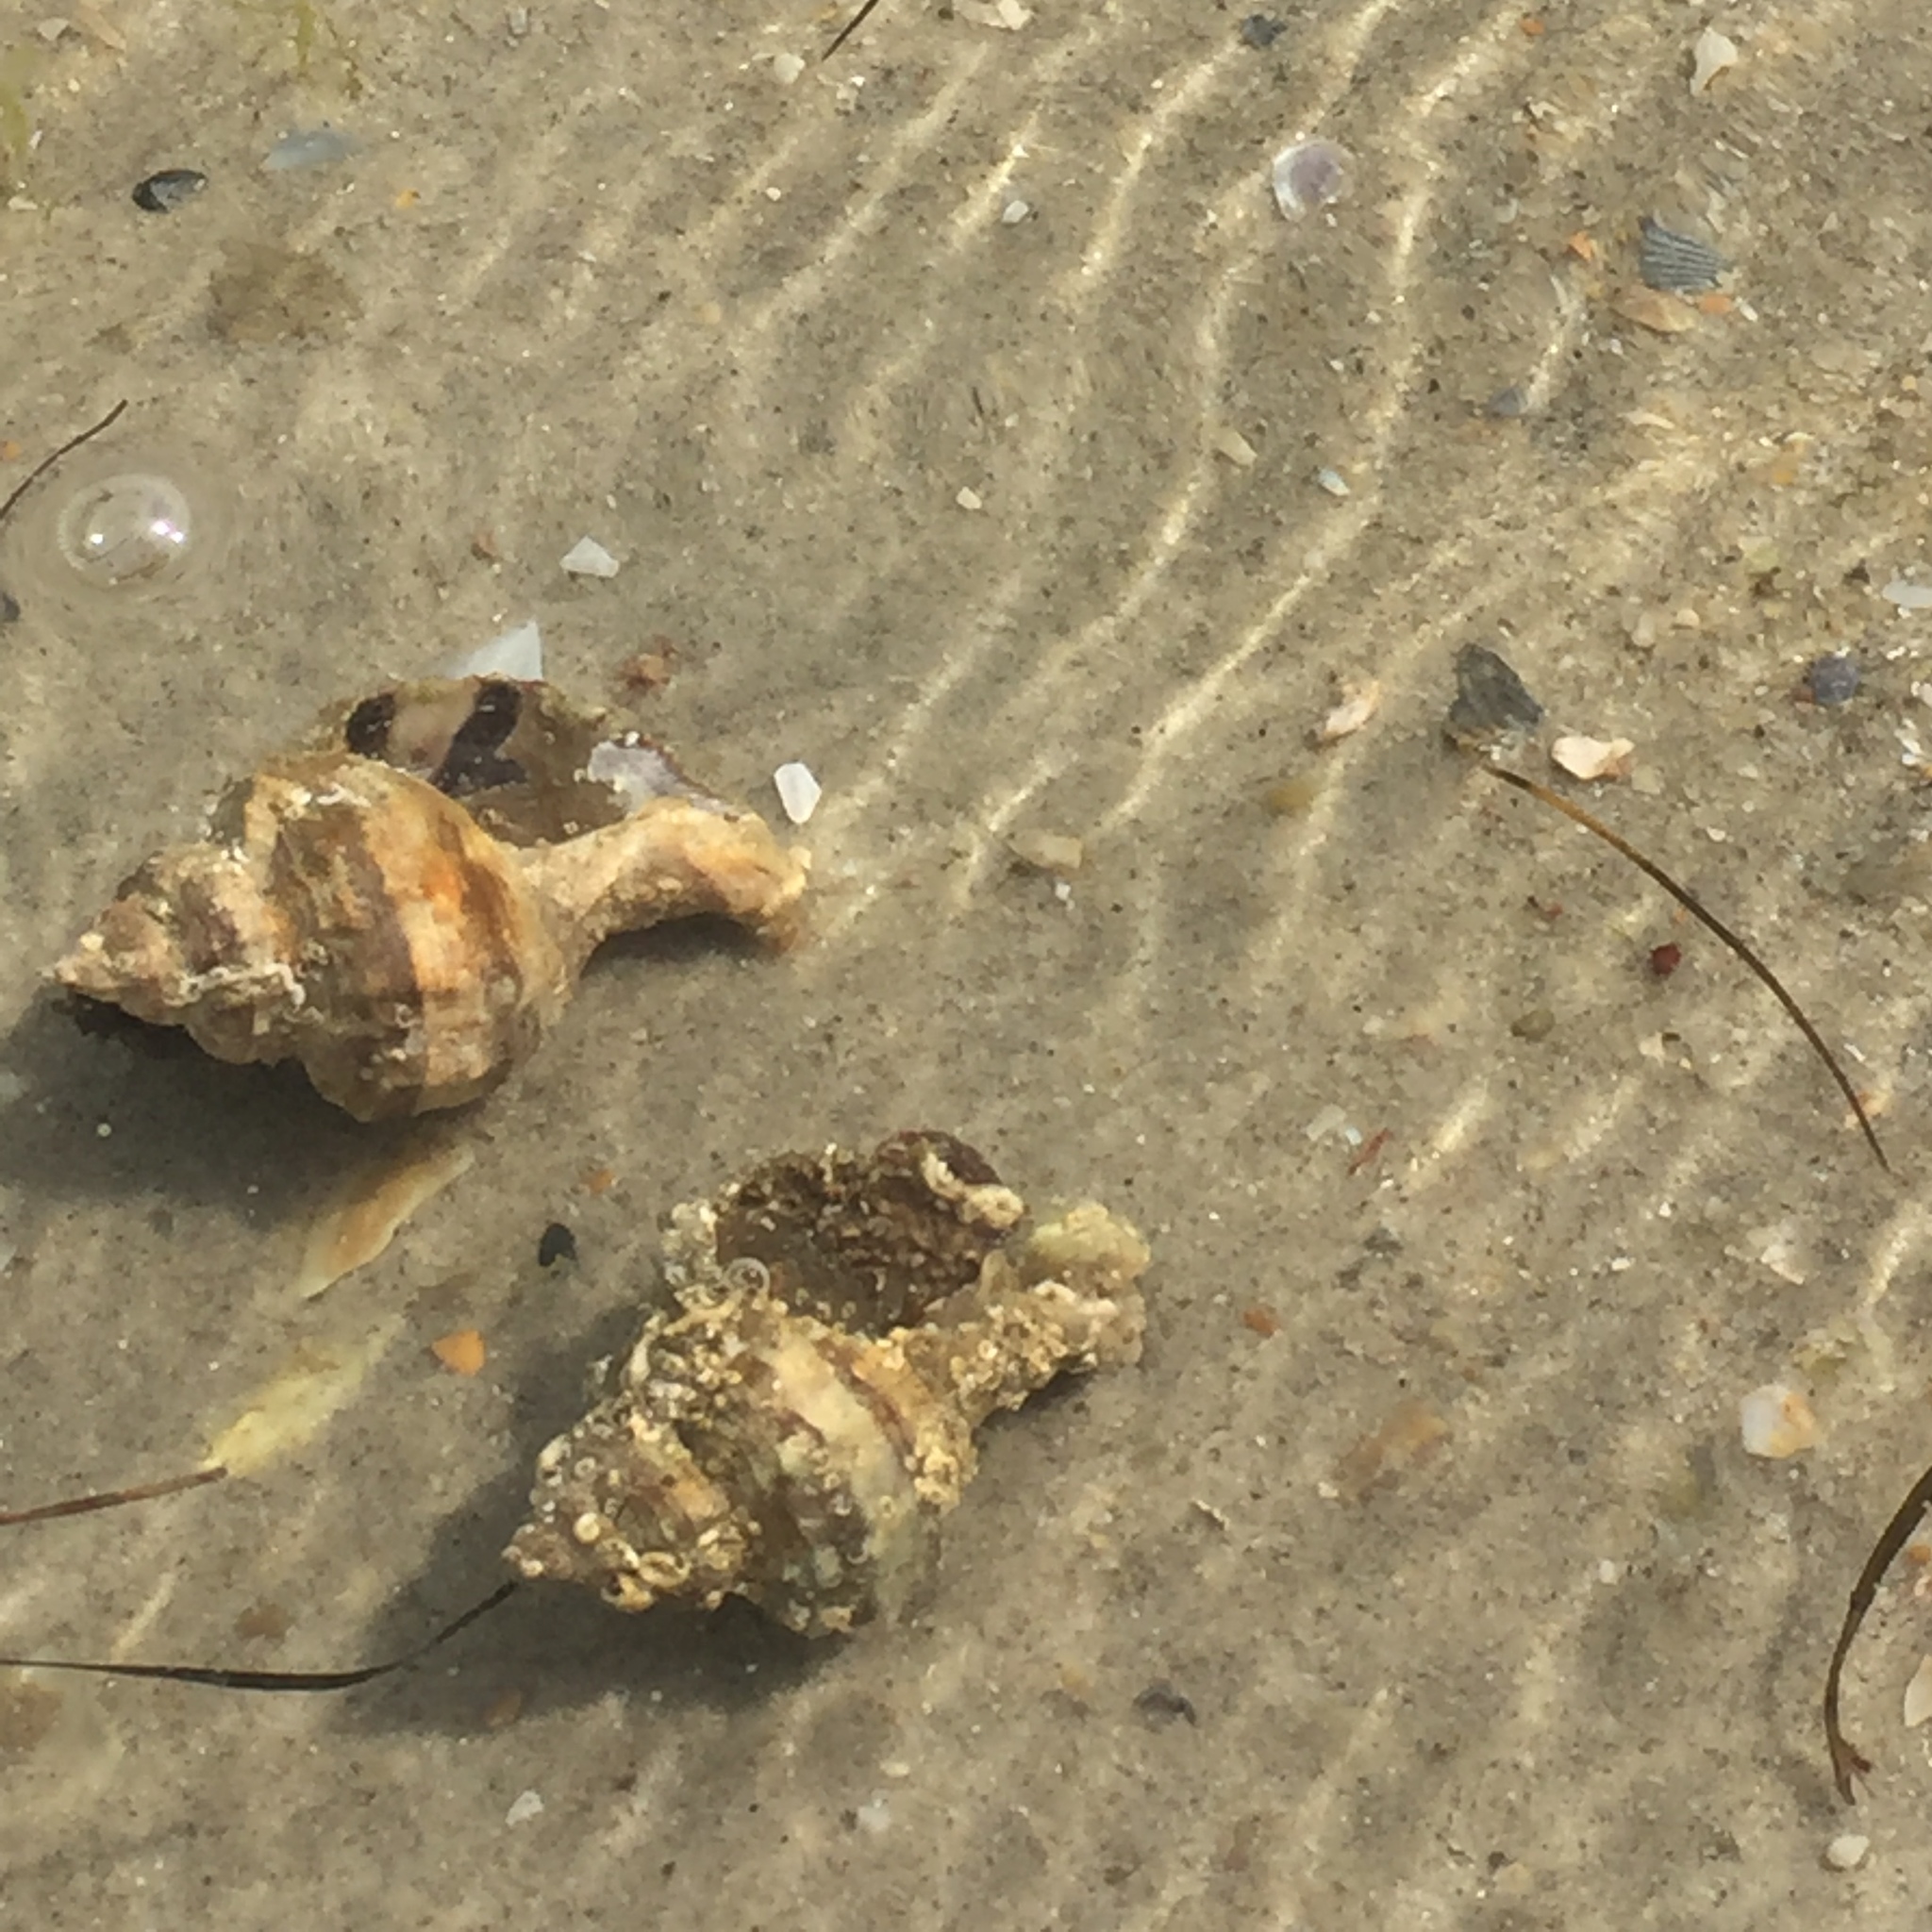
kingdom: Animalia
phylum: Mollusca
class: Gastropoda
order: Neogastropoda
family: Muricidae
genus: Hexaplex
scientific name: Hexaplex trunculus
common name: Banded dye-murex
